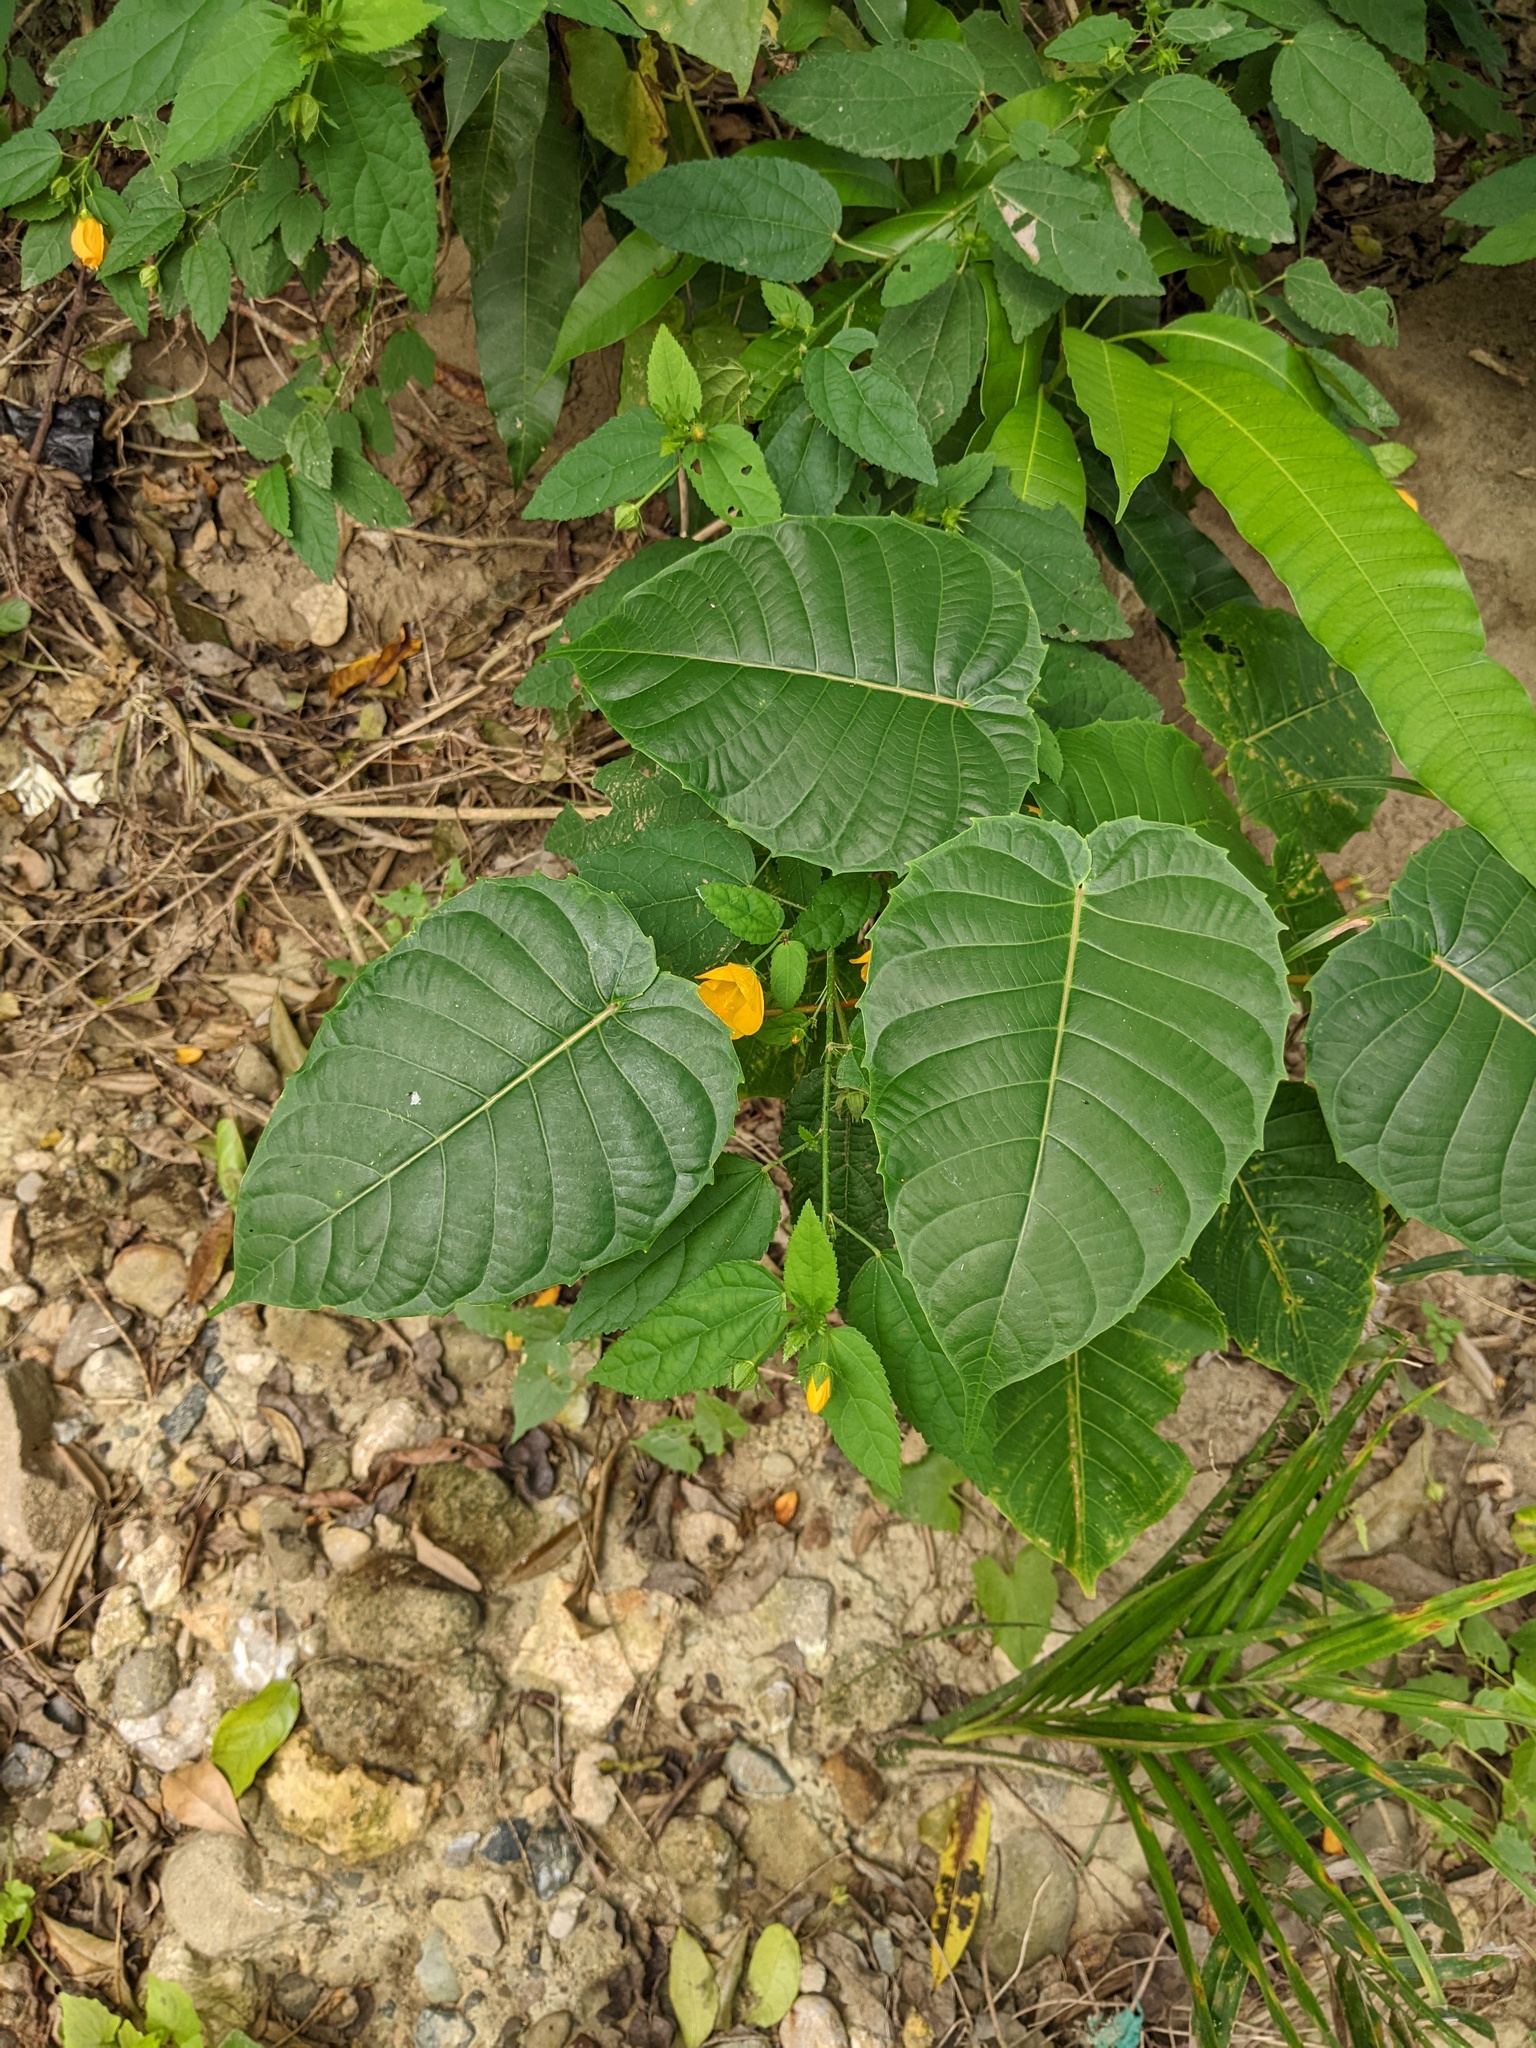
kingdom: Plantae
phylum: Tracheophyta
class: Magnoliopsida
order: Malpighiales
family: Euphorbiaceae
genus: Hura
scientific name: Hura crepitans
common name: Sandboxtree
